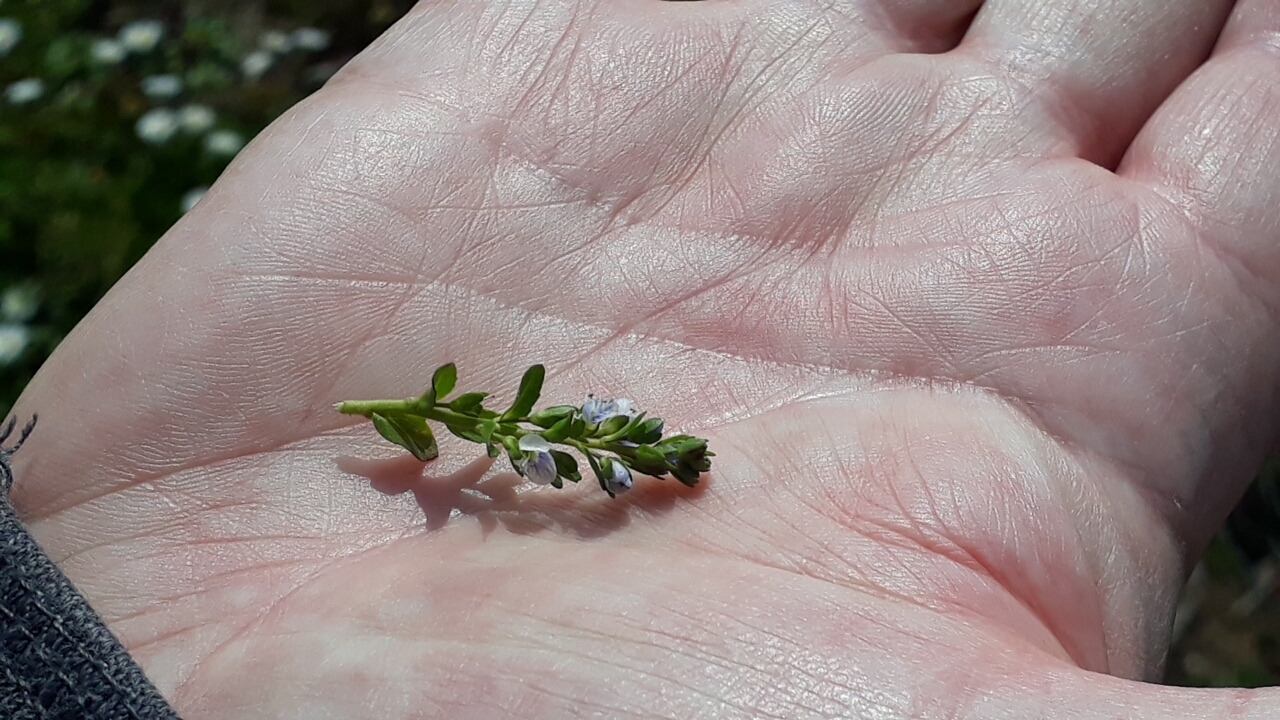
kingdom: Plantae
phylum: Tracheophyta
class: Magnoliopsida
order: Lamiales
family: Plantaginaceae
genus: Veronica
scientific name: Veronica serpyllifolia
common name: Thyme-leaved speedwell
